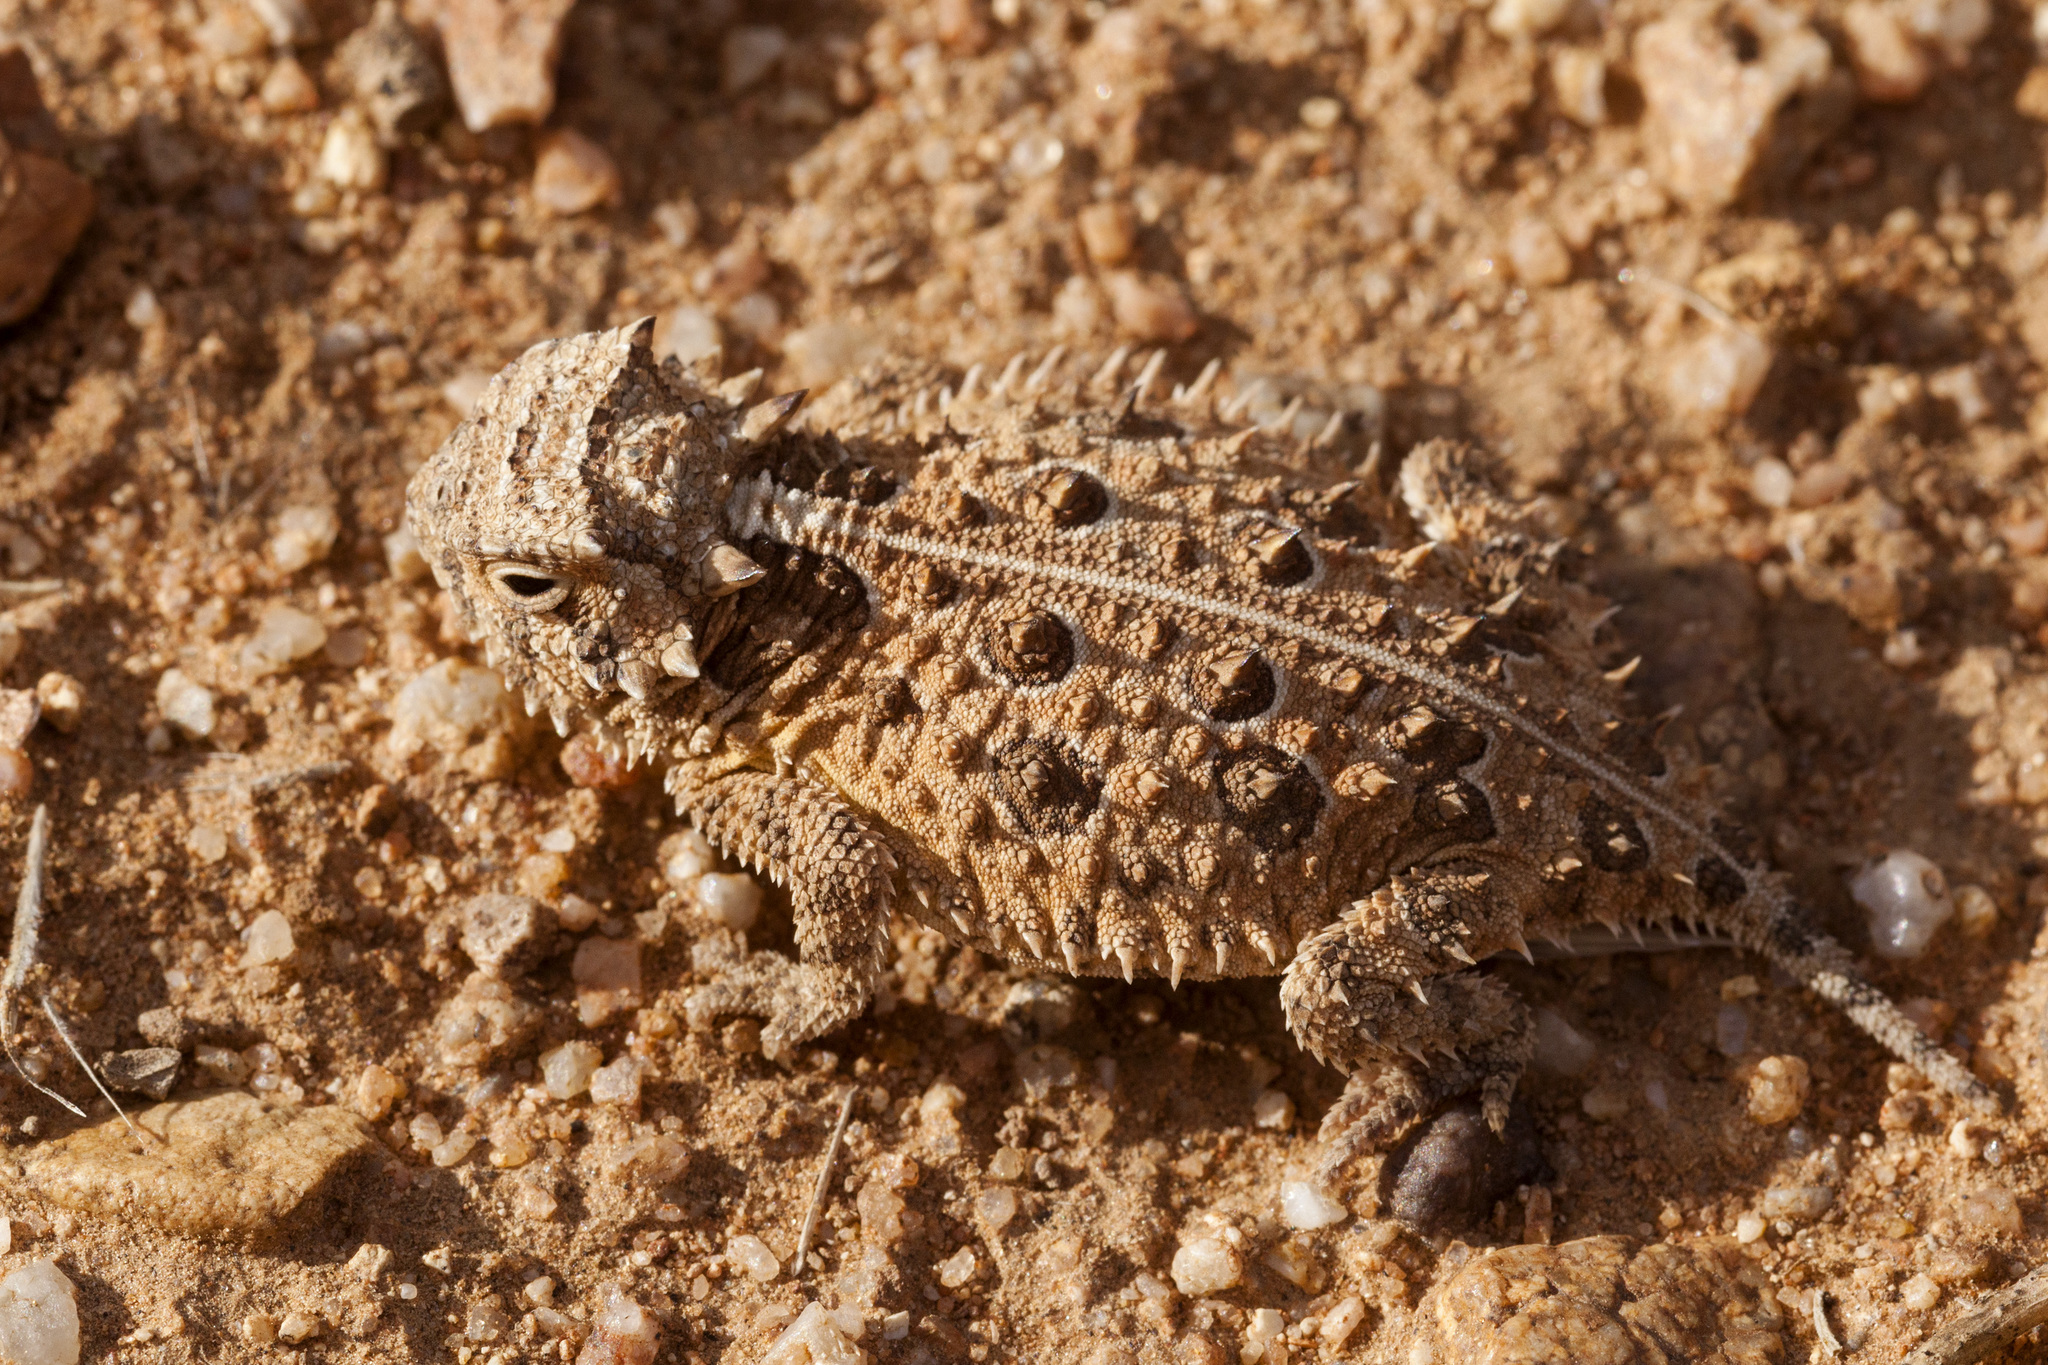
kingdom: Animalia
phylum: Chordata
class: Squamata
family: Phrynosomatidae
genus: Phrynosoma
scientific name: Phrynosoma cornutum
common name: Texas horned lizard
